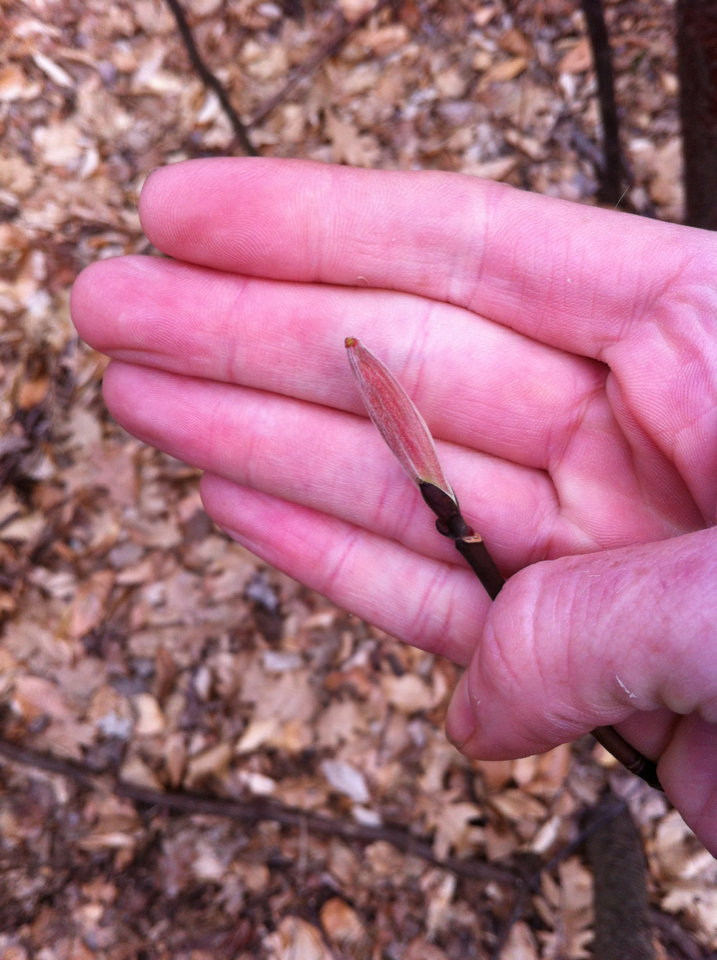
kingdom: Plantae
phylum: Tracheophyta
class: Magnoliopsida
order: Sapindales
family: Sapindaceae
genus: Acer
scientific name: Acer pensylvanicum
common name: Moosewood
